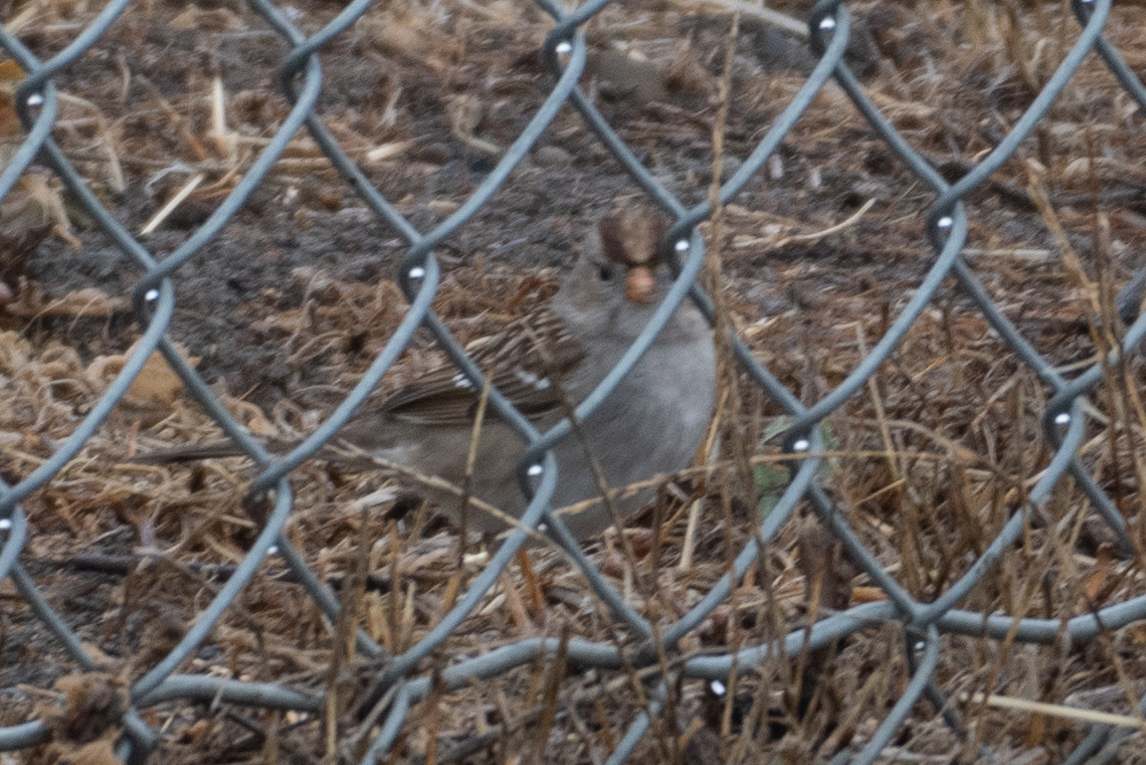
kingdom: Animalia
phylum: Chordata
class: Aves
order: Passeriformes
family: Passerellidae
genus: Zonotrichia
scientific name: Zonotrichia leucophrys
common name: White-crowned sparrow
